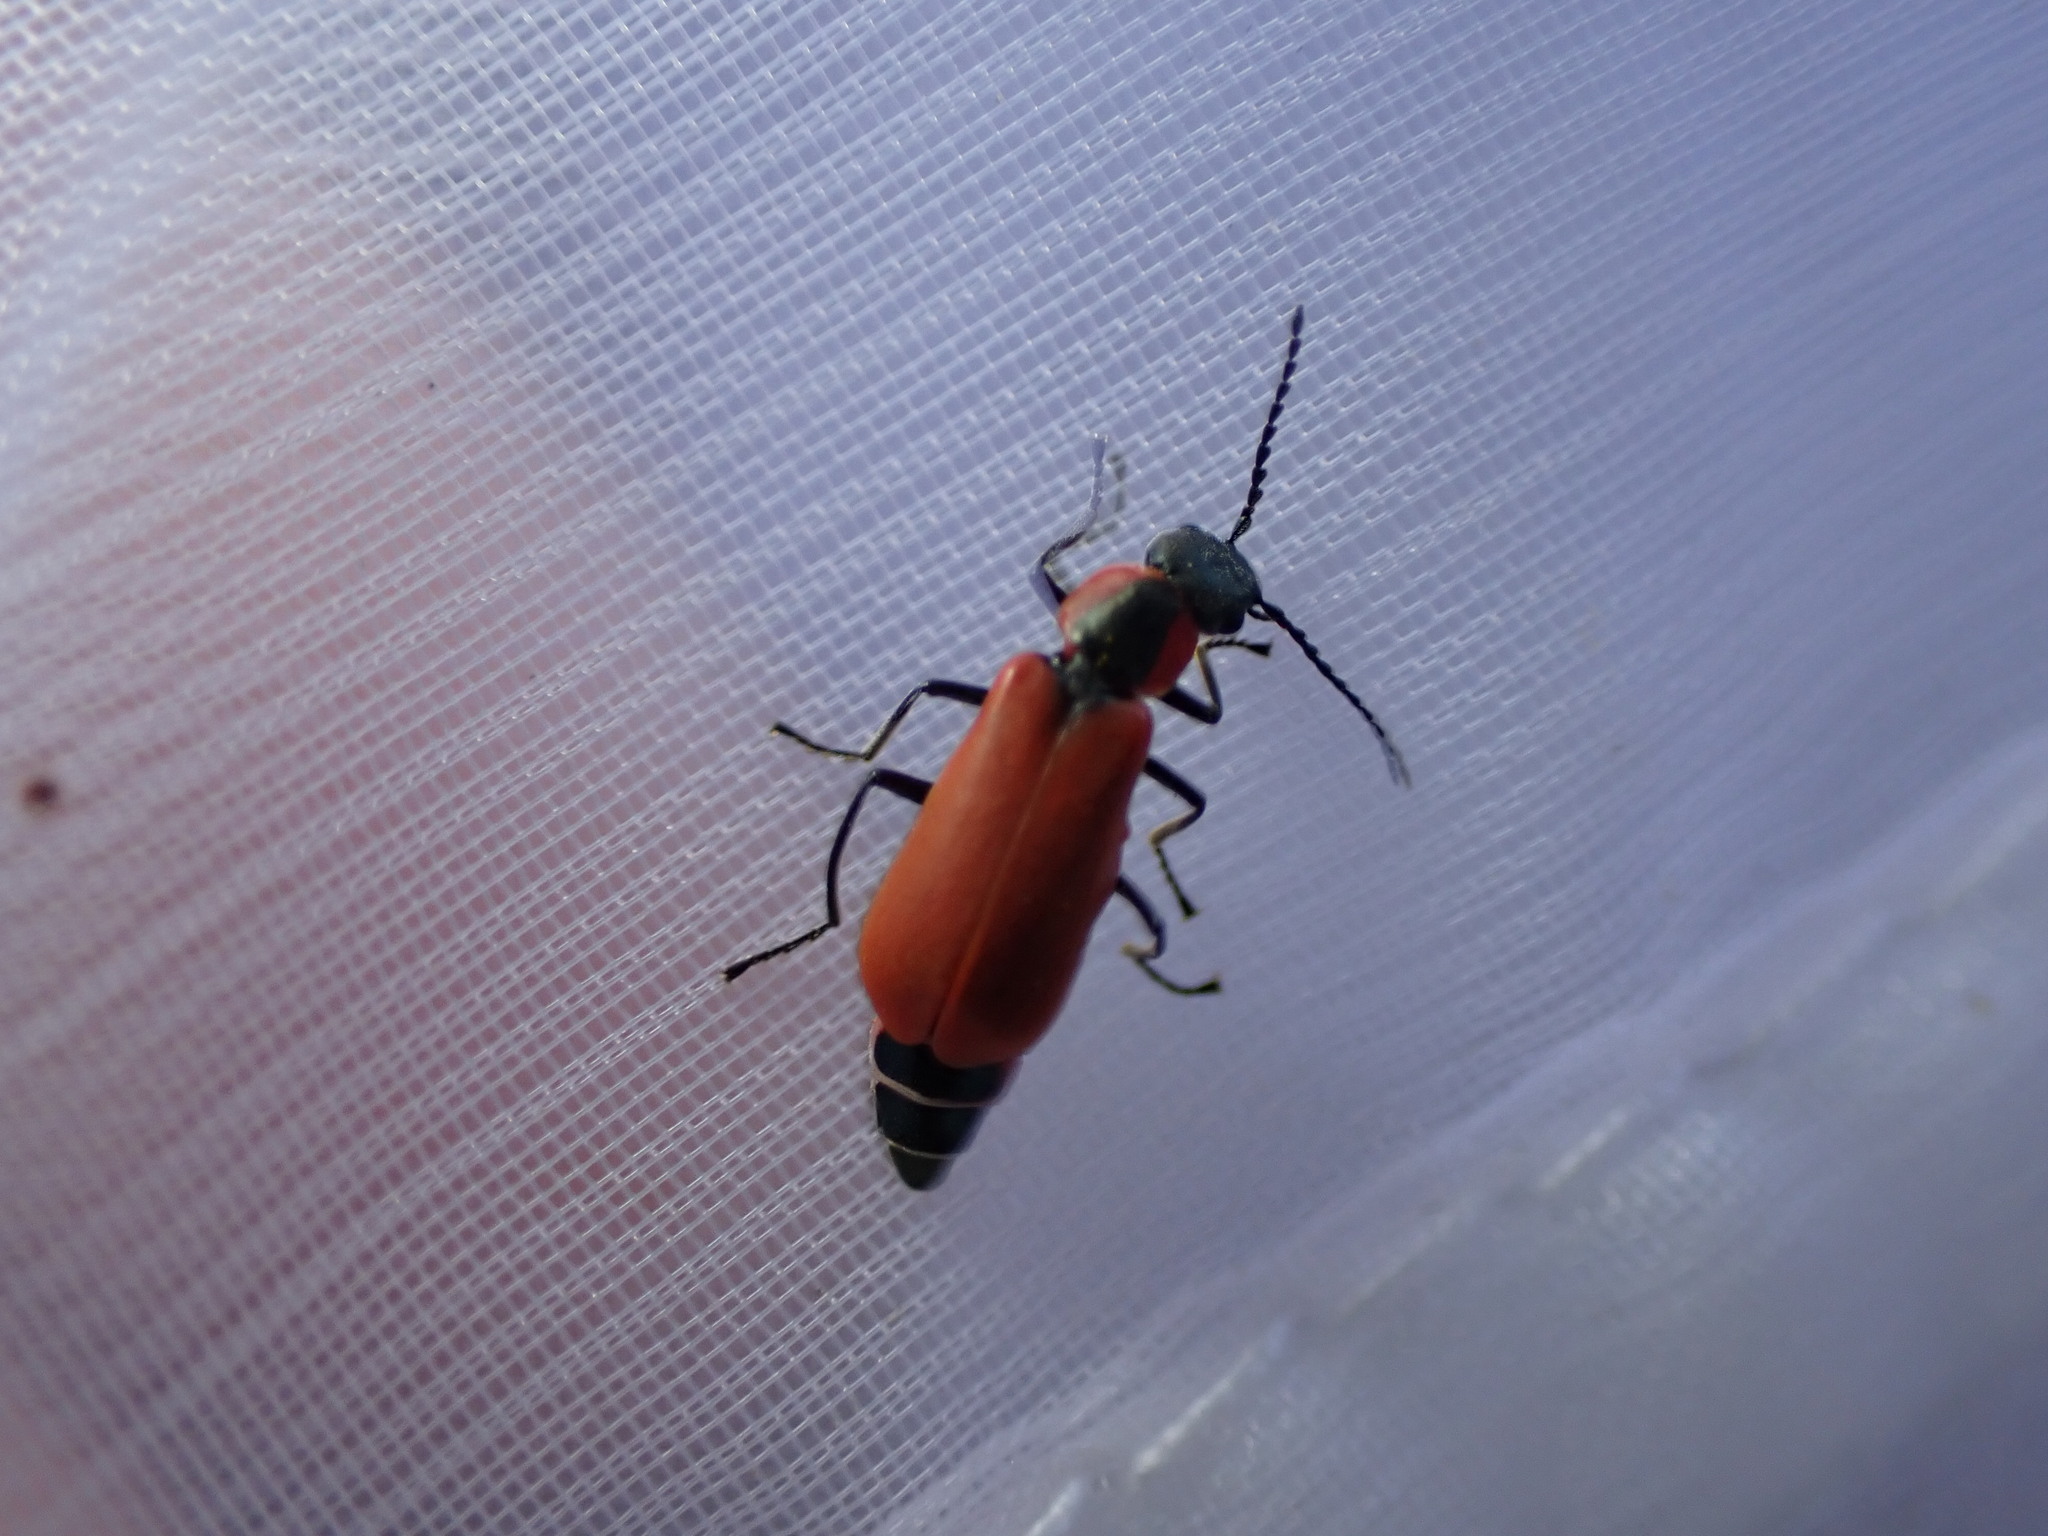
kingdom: Animalia
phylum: Arthropoda
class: Insecta
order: Coleoptera
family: Melyridae
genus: Anthocomus
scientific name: Anthocomus rufus
